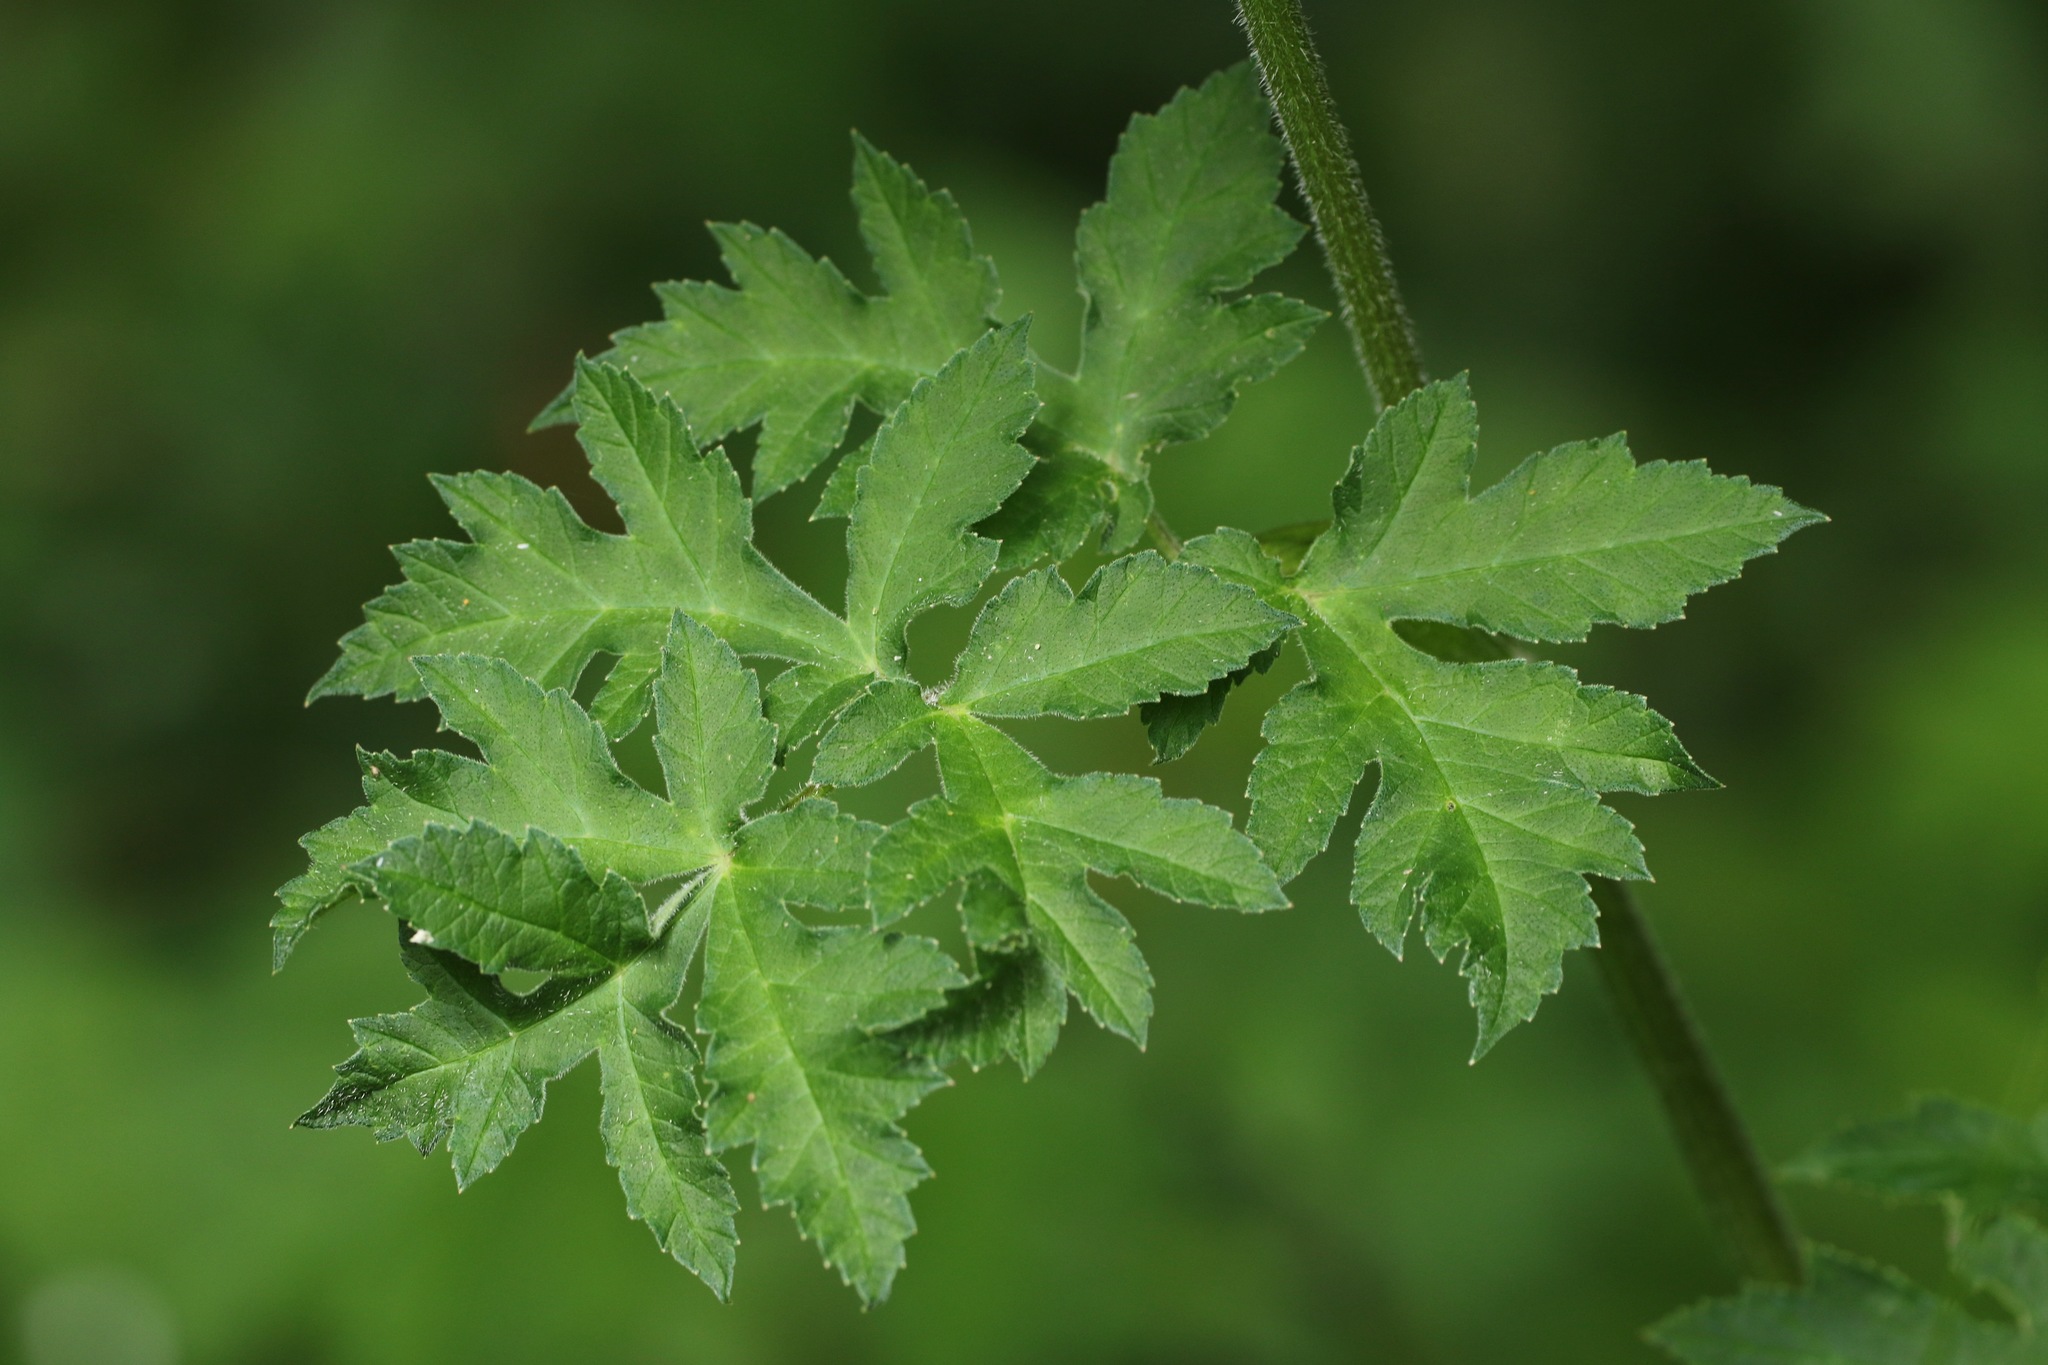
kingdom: Plantae
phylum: Tracheophyta
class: Magnoliopsida
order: Apiales
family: Apiaceae
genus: Heracleum
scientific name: Heracleum sphondylium
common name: Hogweed
